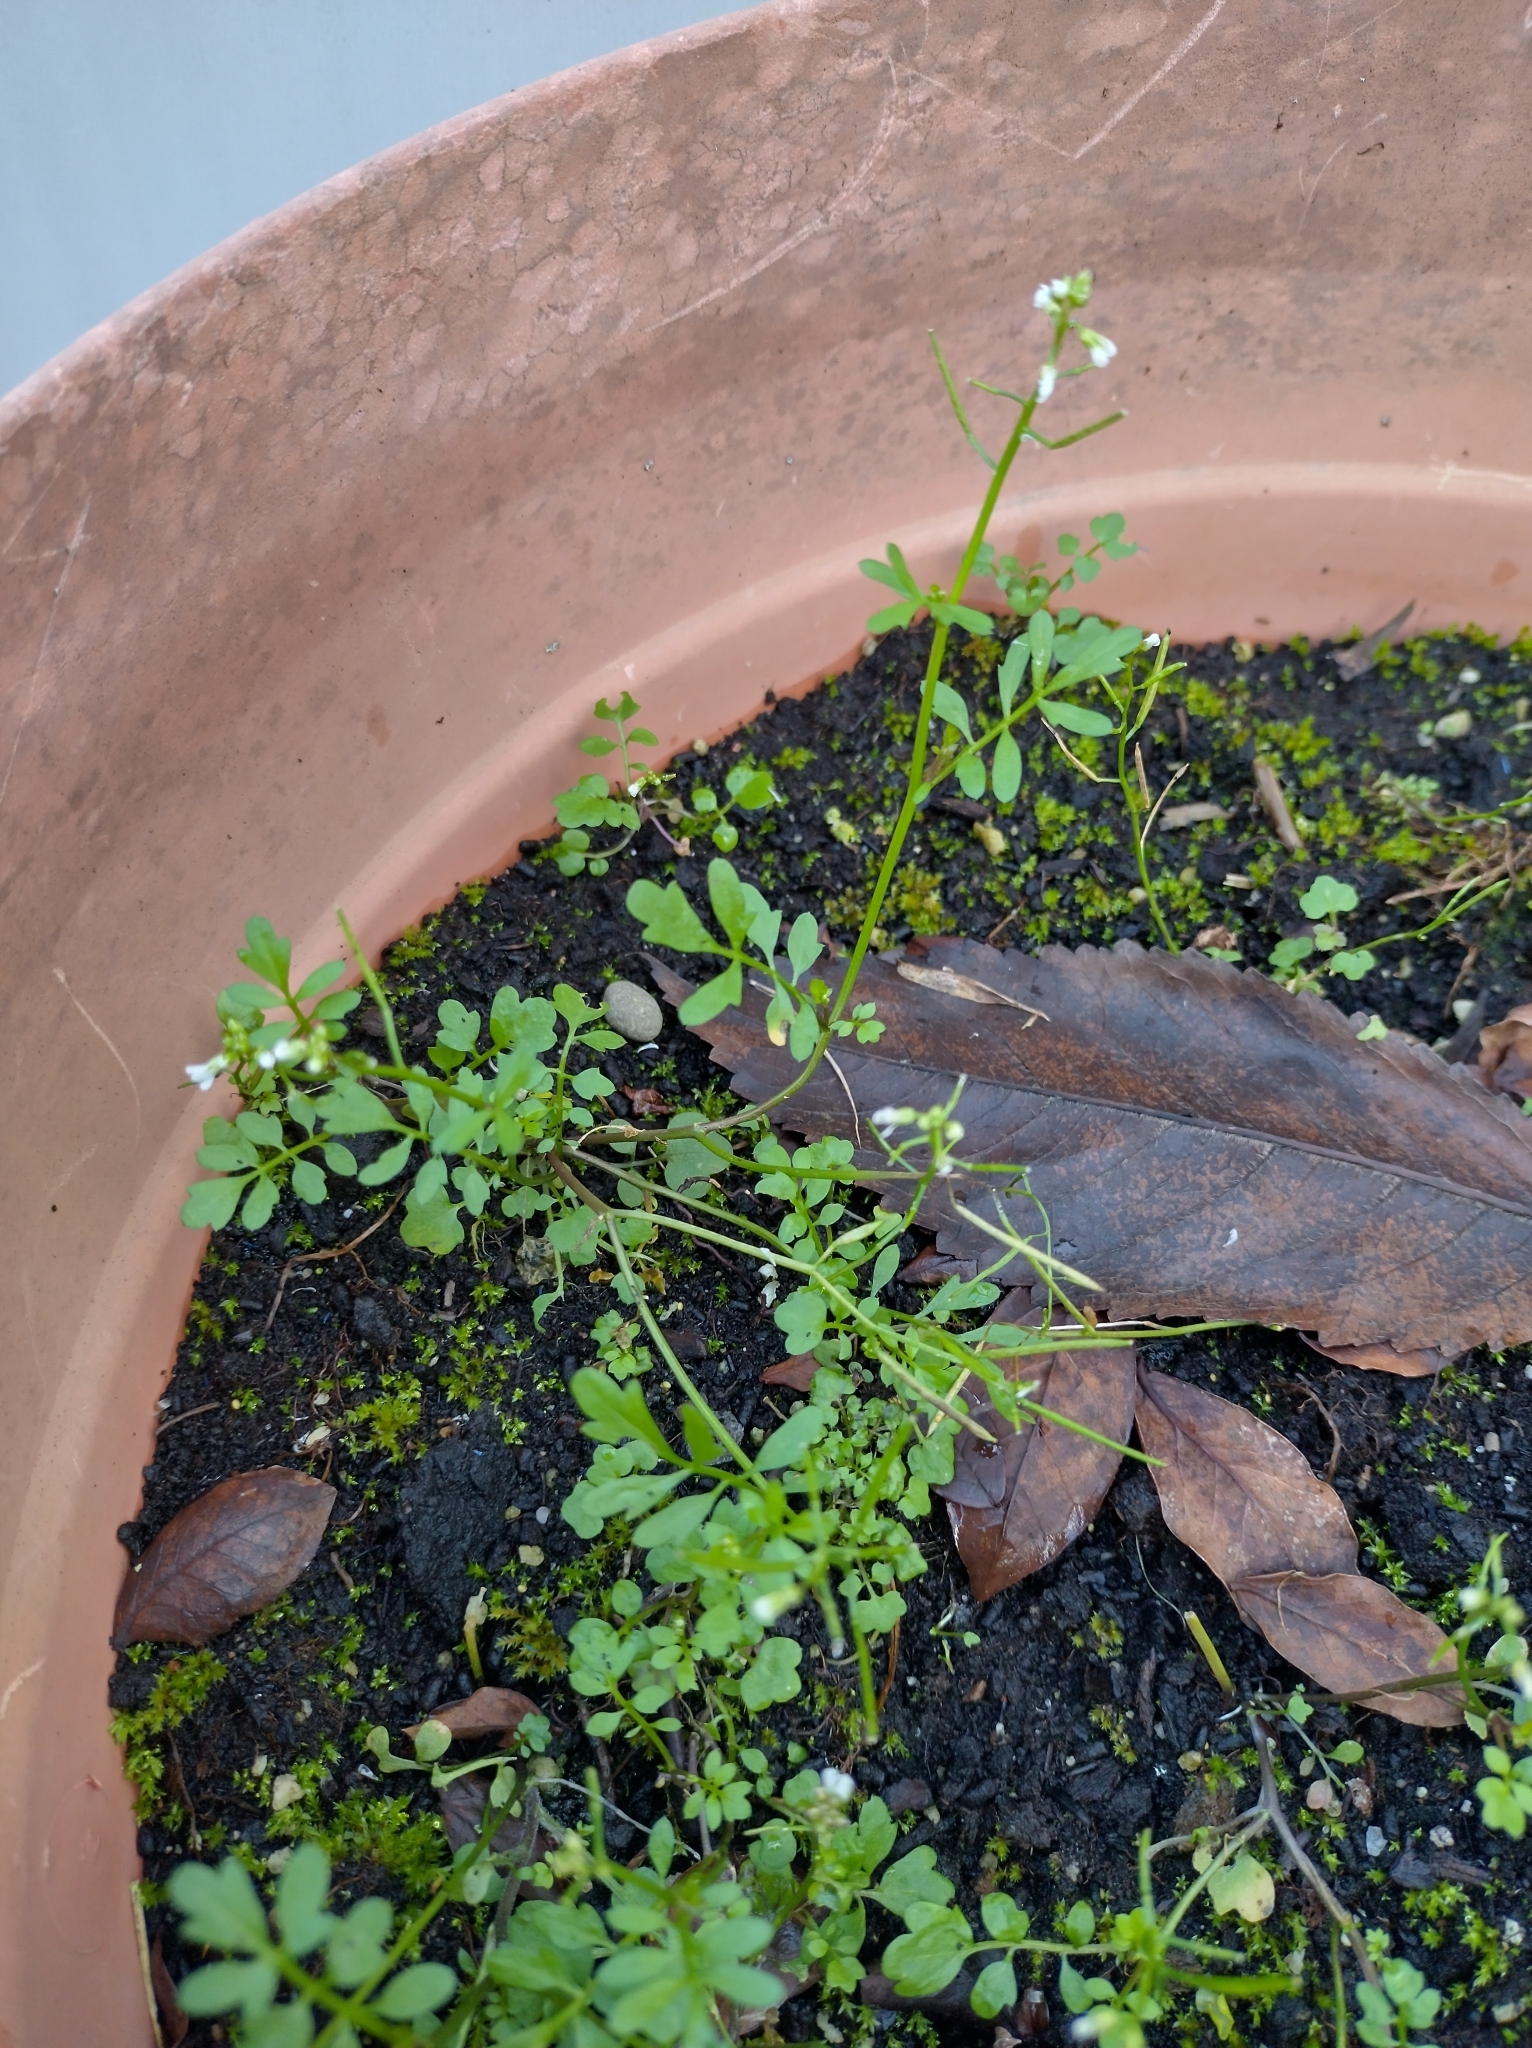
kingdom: Plantae
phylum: Tracheophyta
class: Magnoliopsida
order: Brassicales
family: Brassicaceae
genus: Cardamine
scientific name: Cardamine flexuosa
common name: Woodland bittercress
